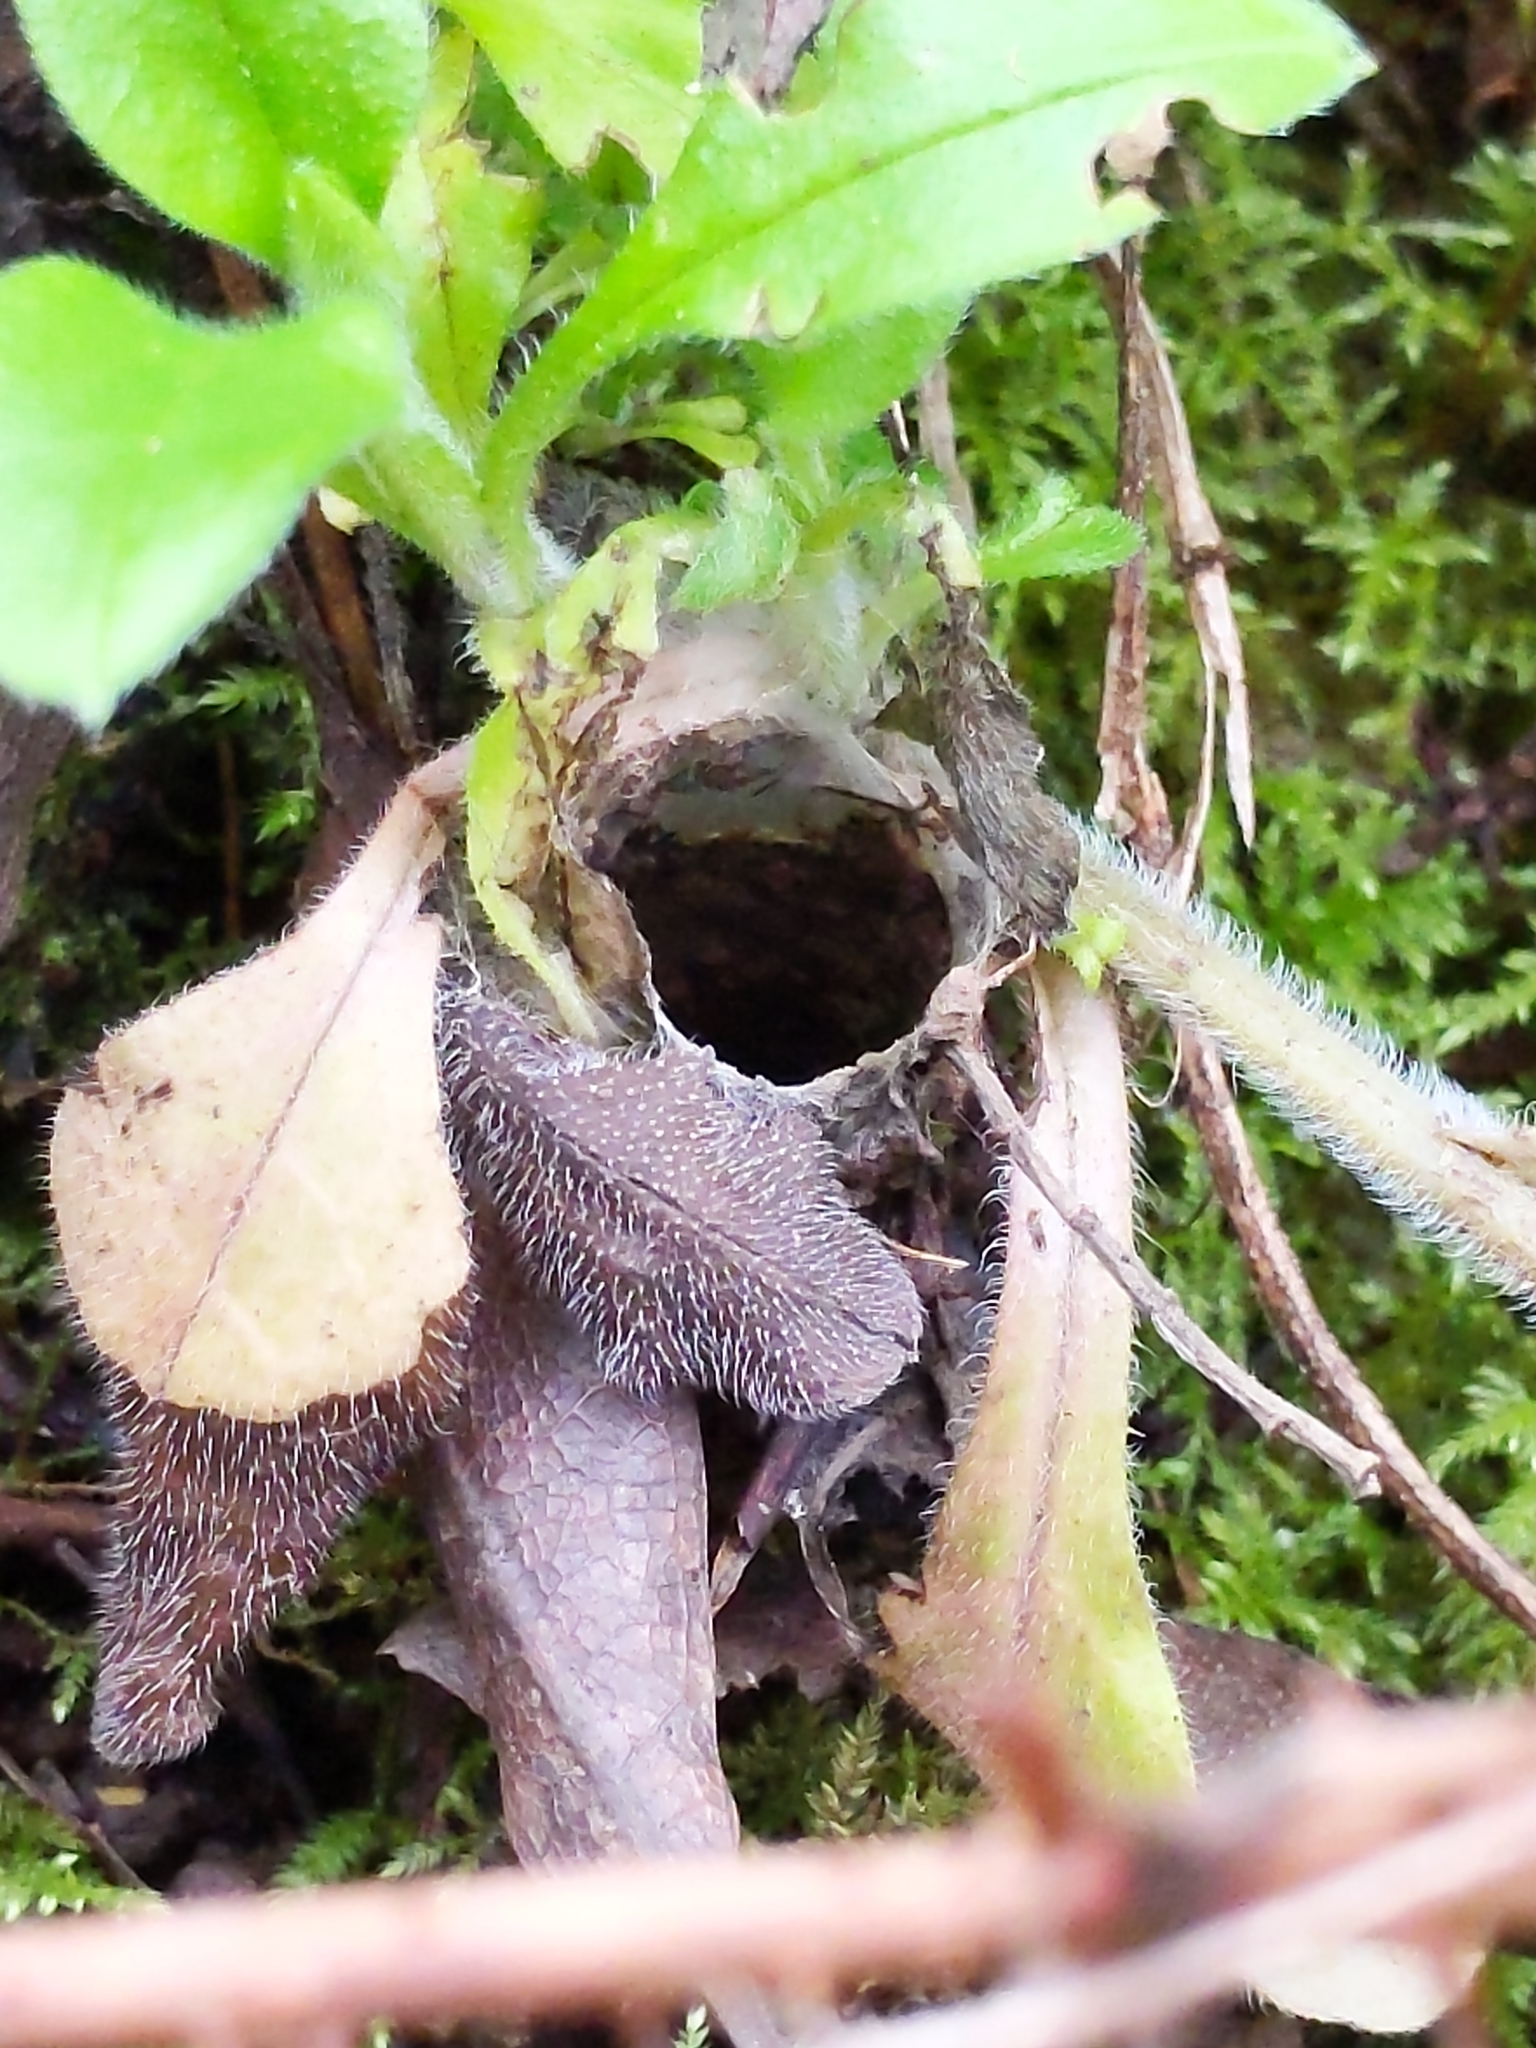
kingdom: Animalia
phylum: Arthropoda
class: Arachnida
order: Araneae
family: Antrodiaetidae
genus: Atypoides
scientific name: Atypoides riversi
